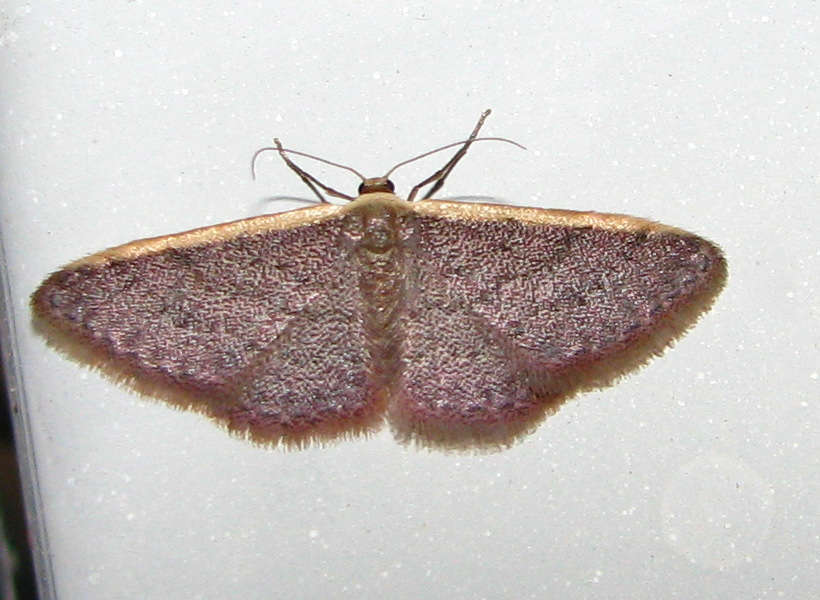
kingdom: Animalia
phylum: Arthropoda
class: Insecta
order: Lepidoptera
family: Geometridae
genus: Idaea
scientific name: Idaea costaria
